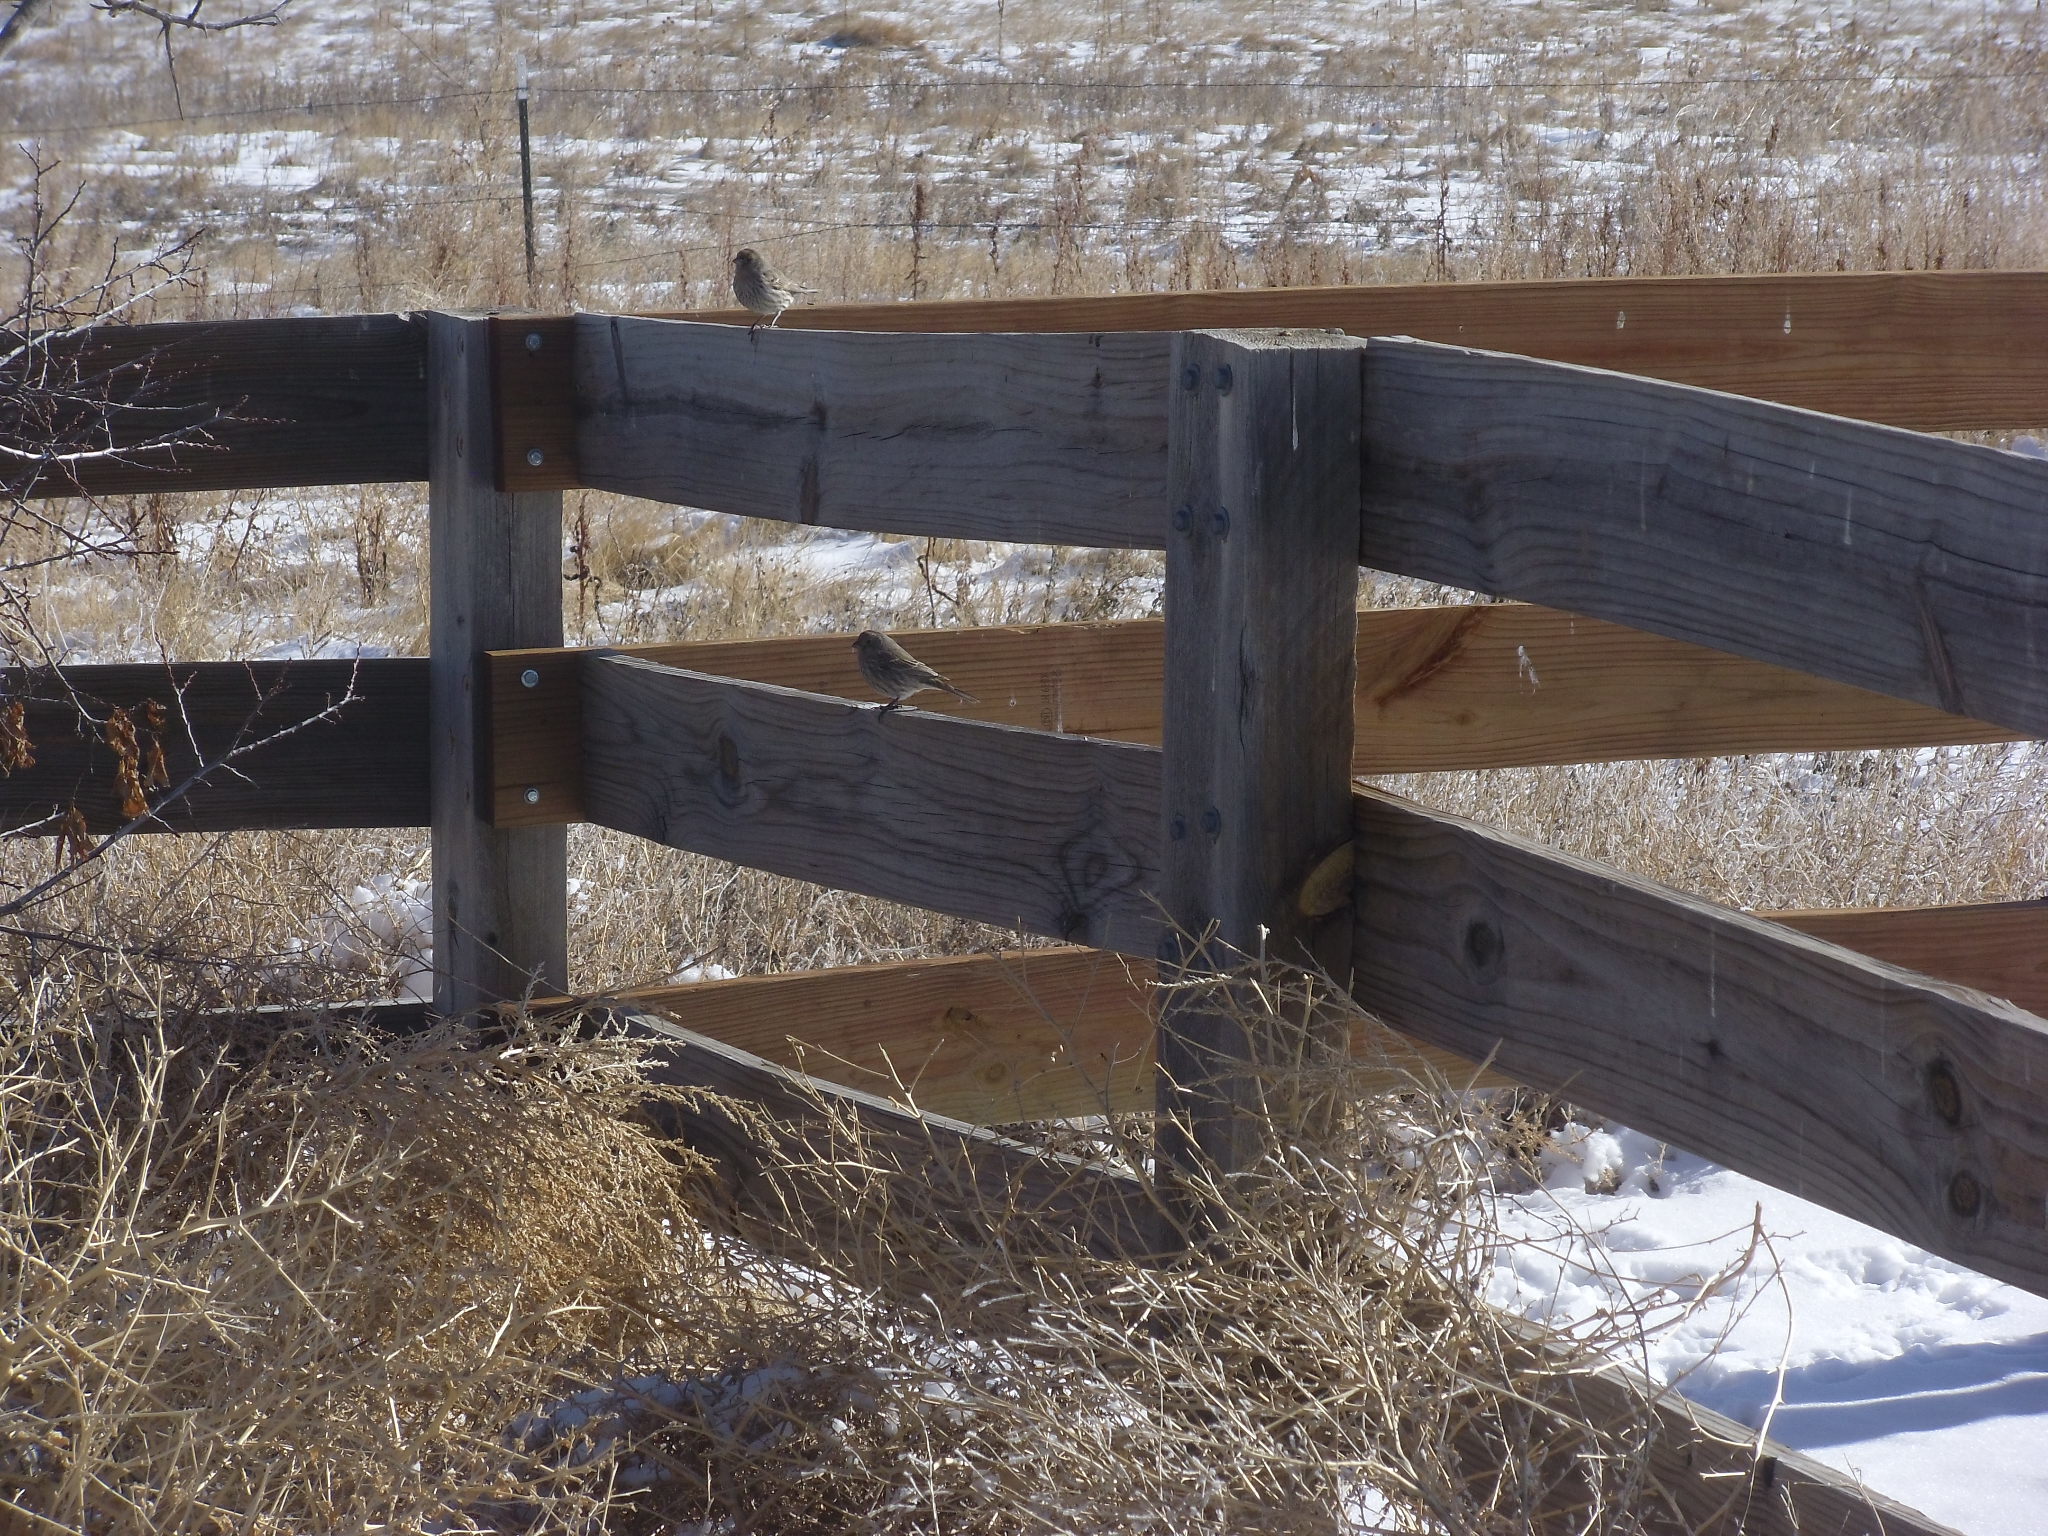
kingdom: Animalia
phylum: Chordata
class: Aves
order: Passeriformes
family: Fringillidae
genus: Haemorhous
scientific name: Haemorhous mexicanus
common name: House finch
